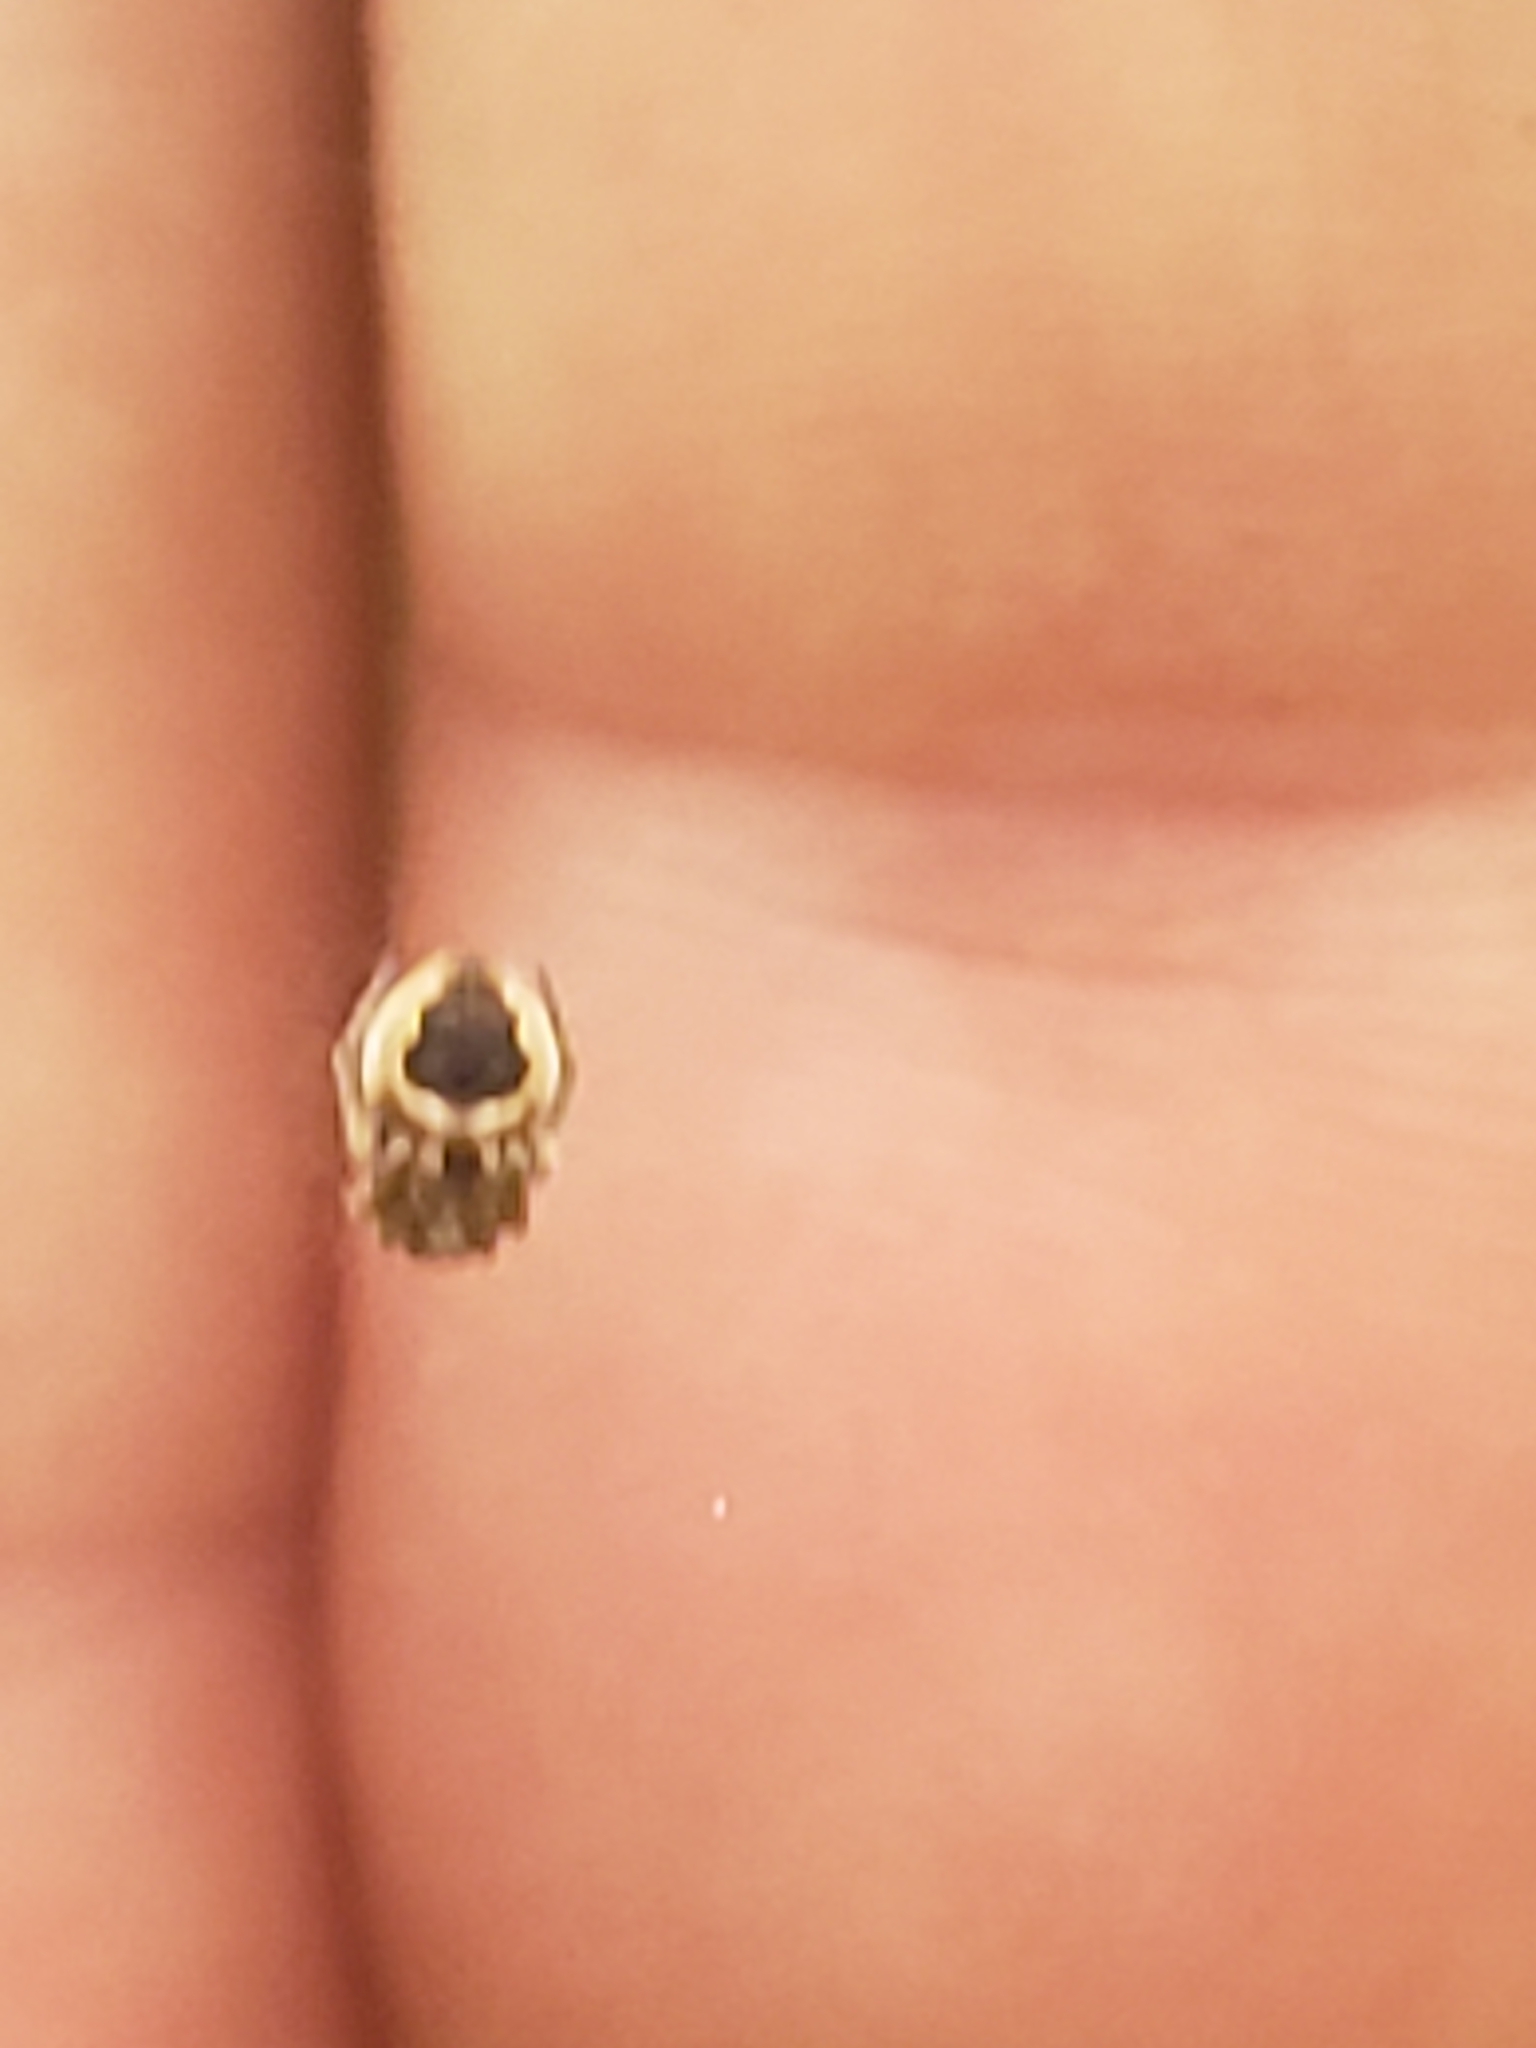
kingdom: Animalia
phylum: Arthropoda
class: Arachnida
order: Araneae
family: Araneidae
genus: Eustala
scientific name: Eustala anastera
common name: Orb weavers
